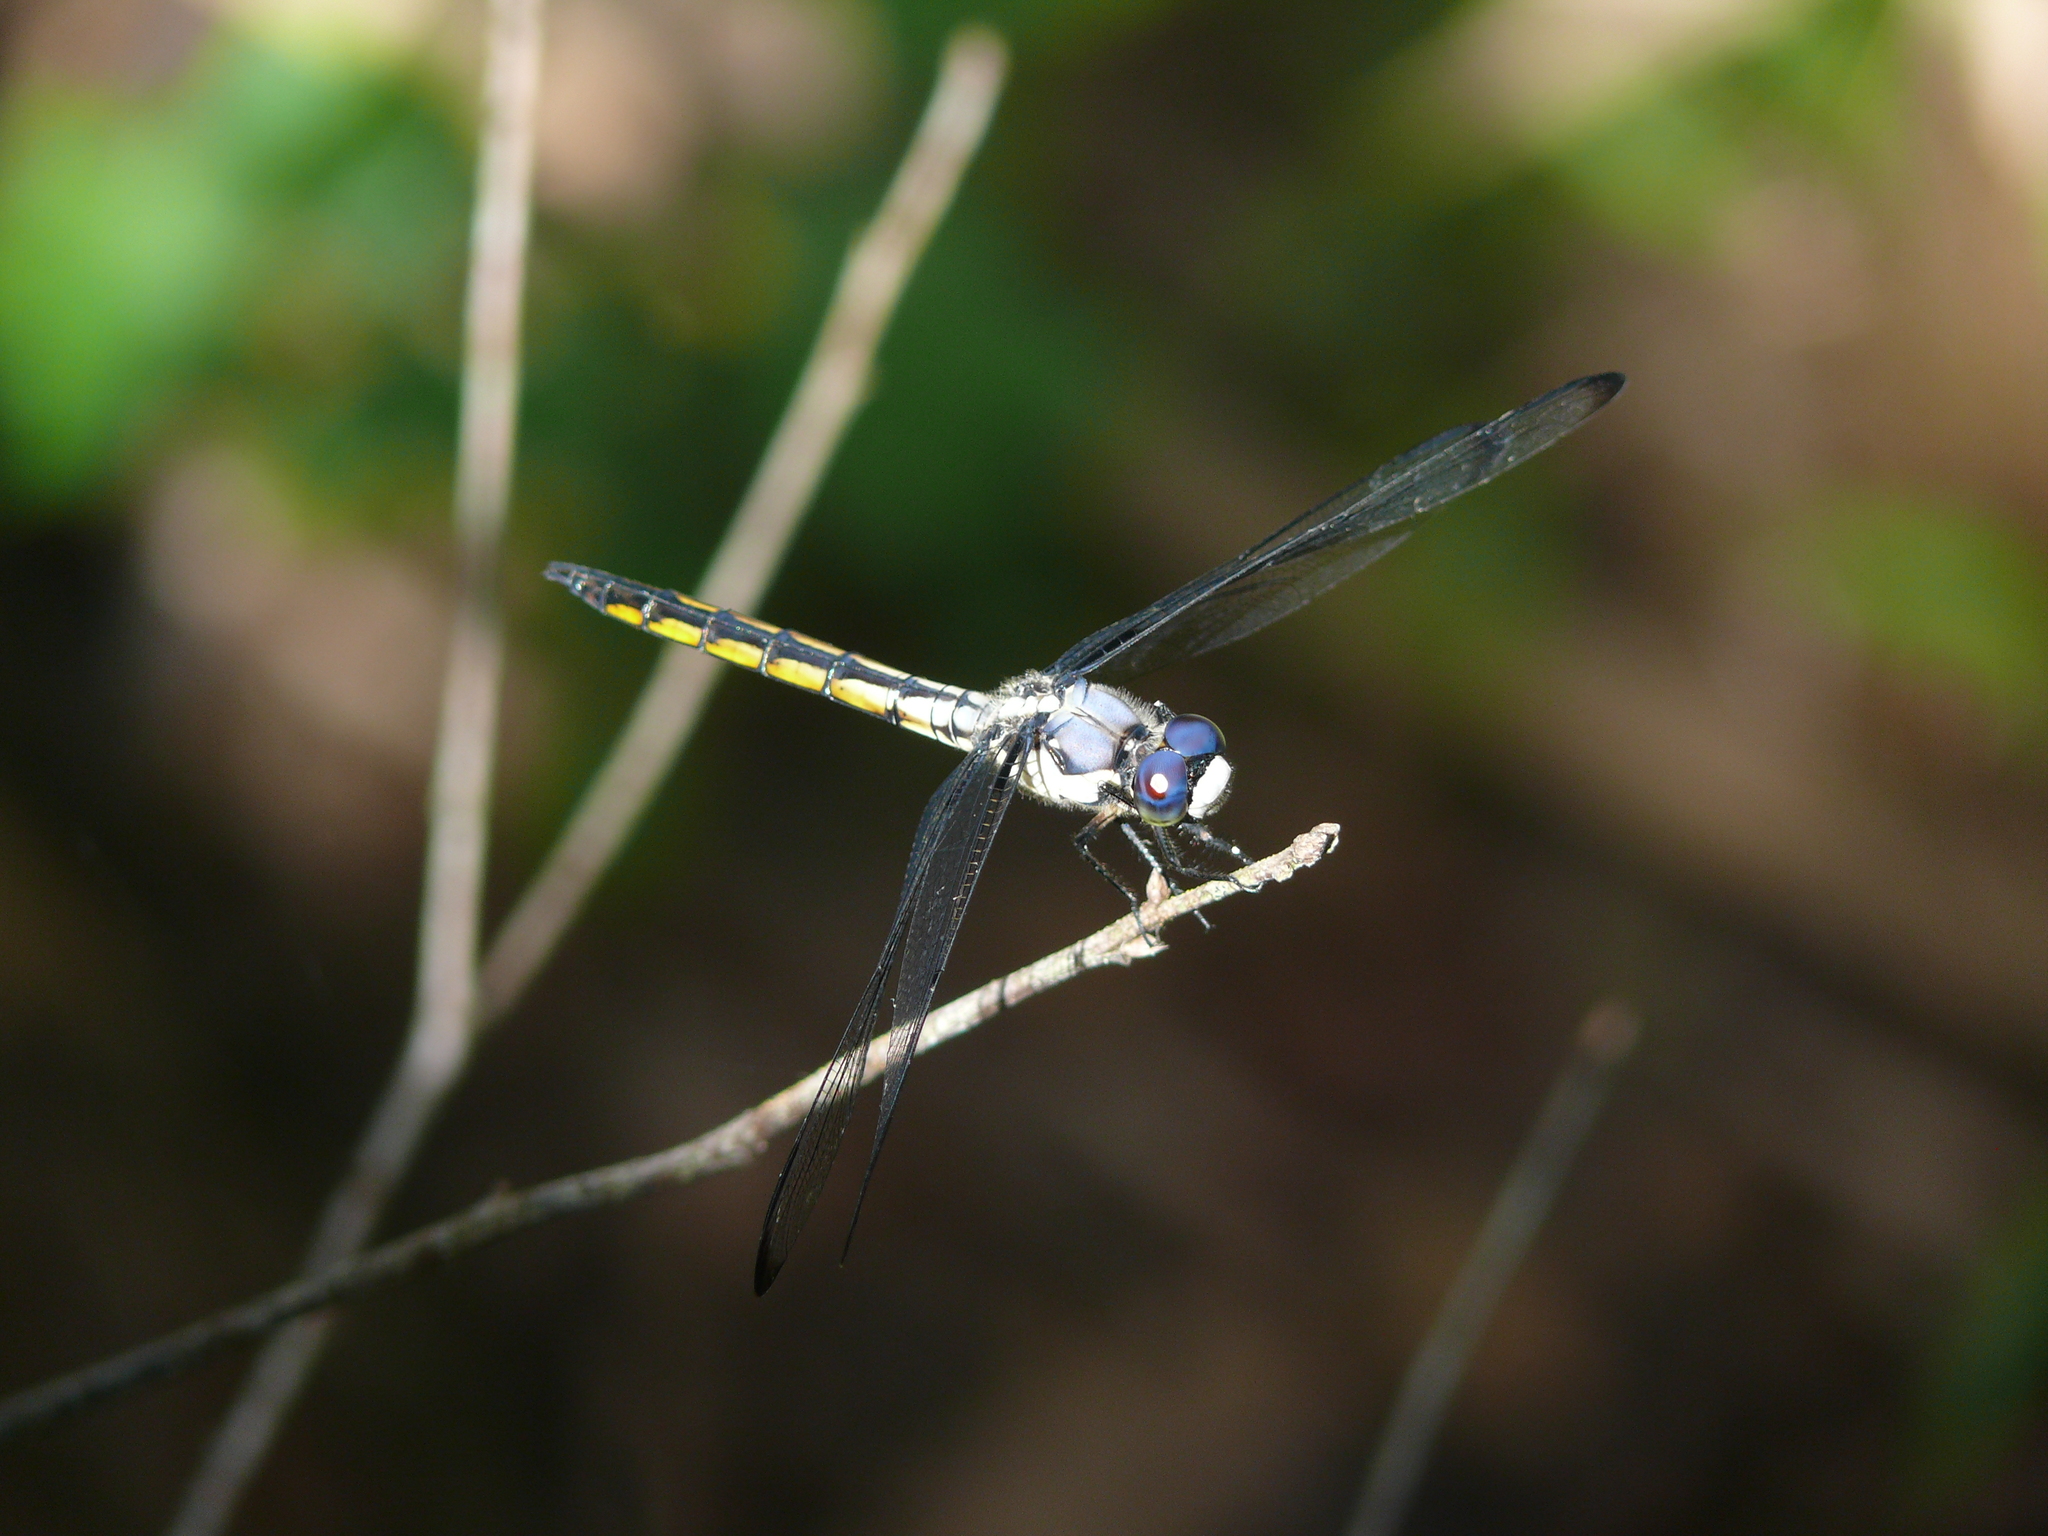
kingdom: Animalia
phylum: Arthropoda
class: Insecta
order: Odonata
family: Libellulidae
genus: Libellula
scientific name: Libellula vibrans
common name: Great blue skimmer
